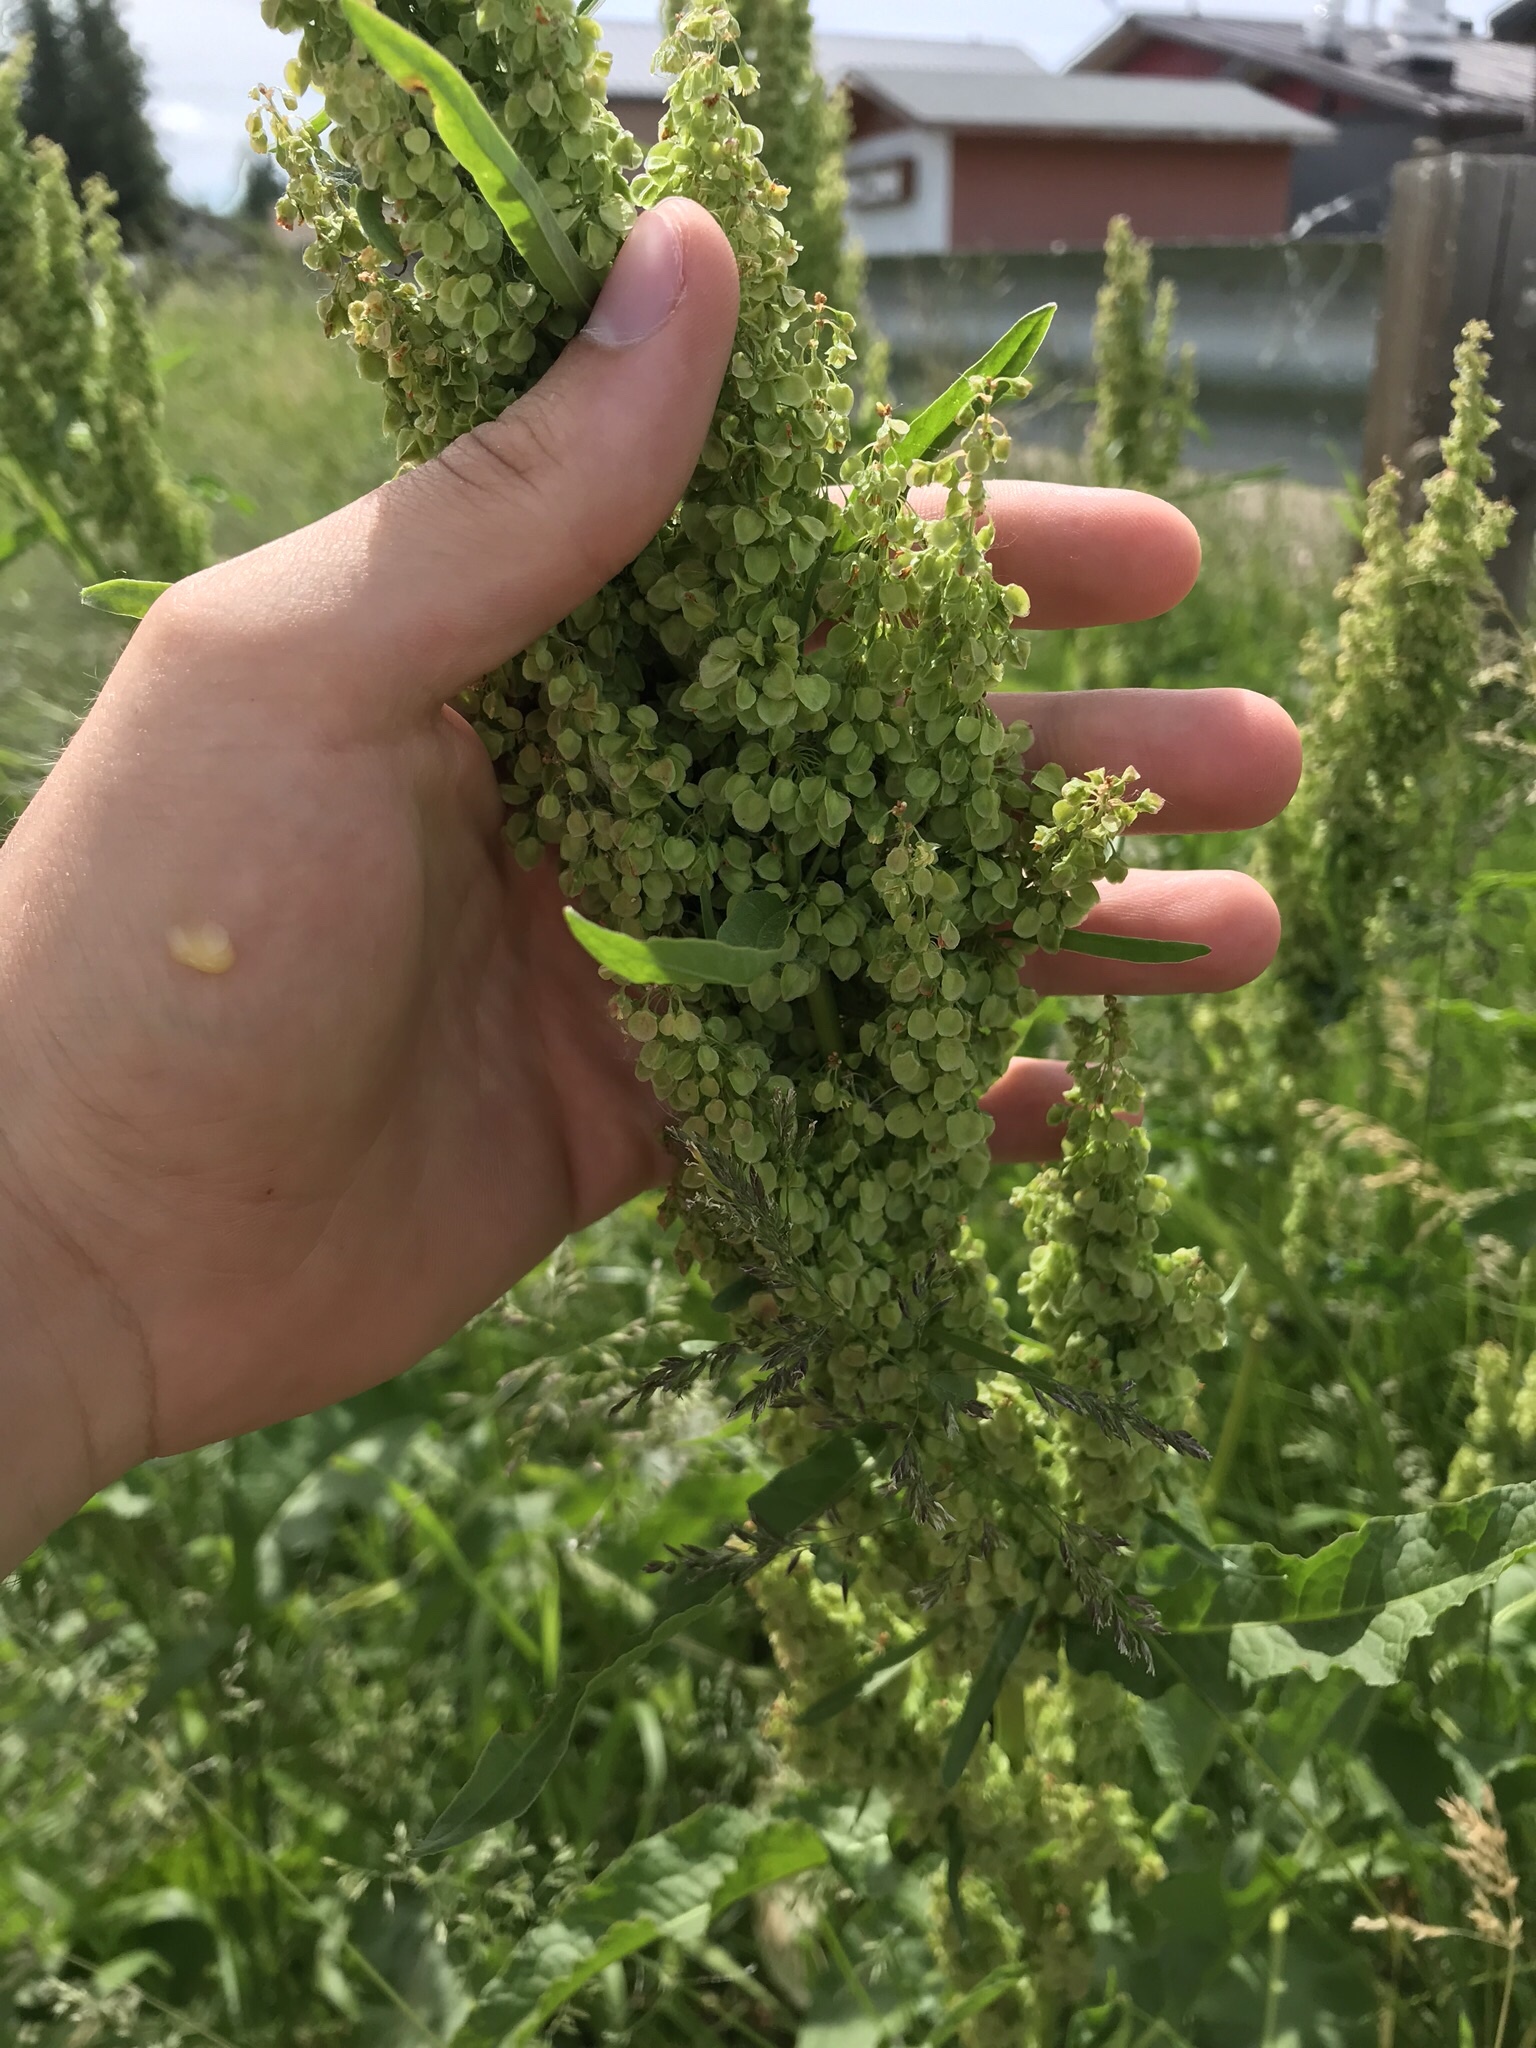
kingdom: Plantae
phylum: Tracheophyta
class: Magnoliopsida
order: Caryophyllales
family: Polygonaceae
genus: Rumex
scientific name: Rumex crispus
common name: Curled dock
